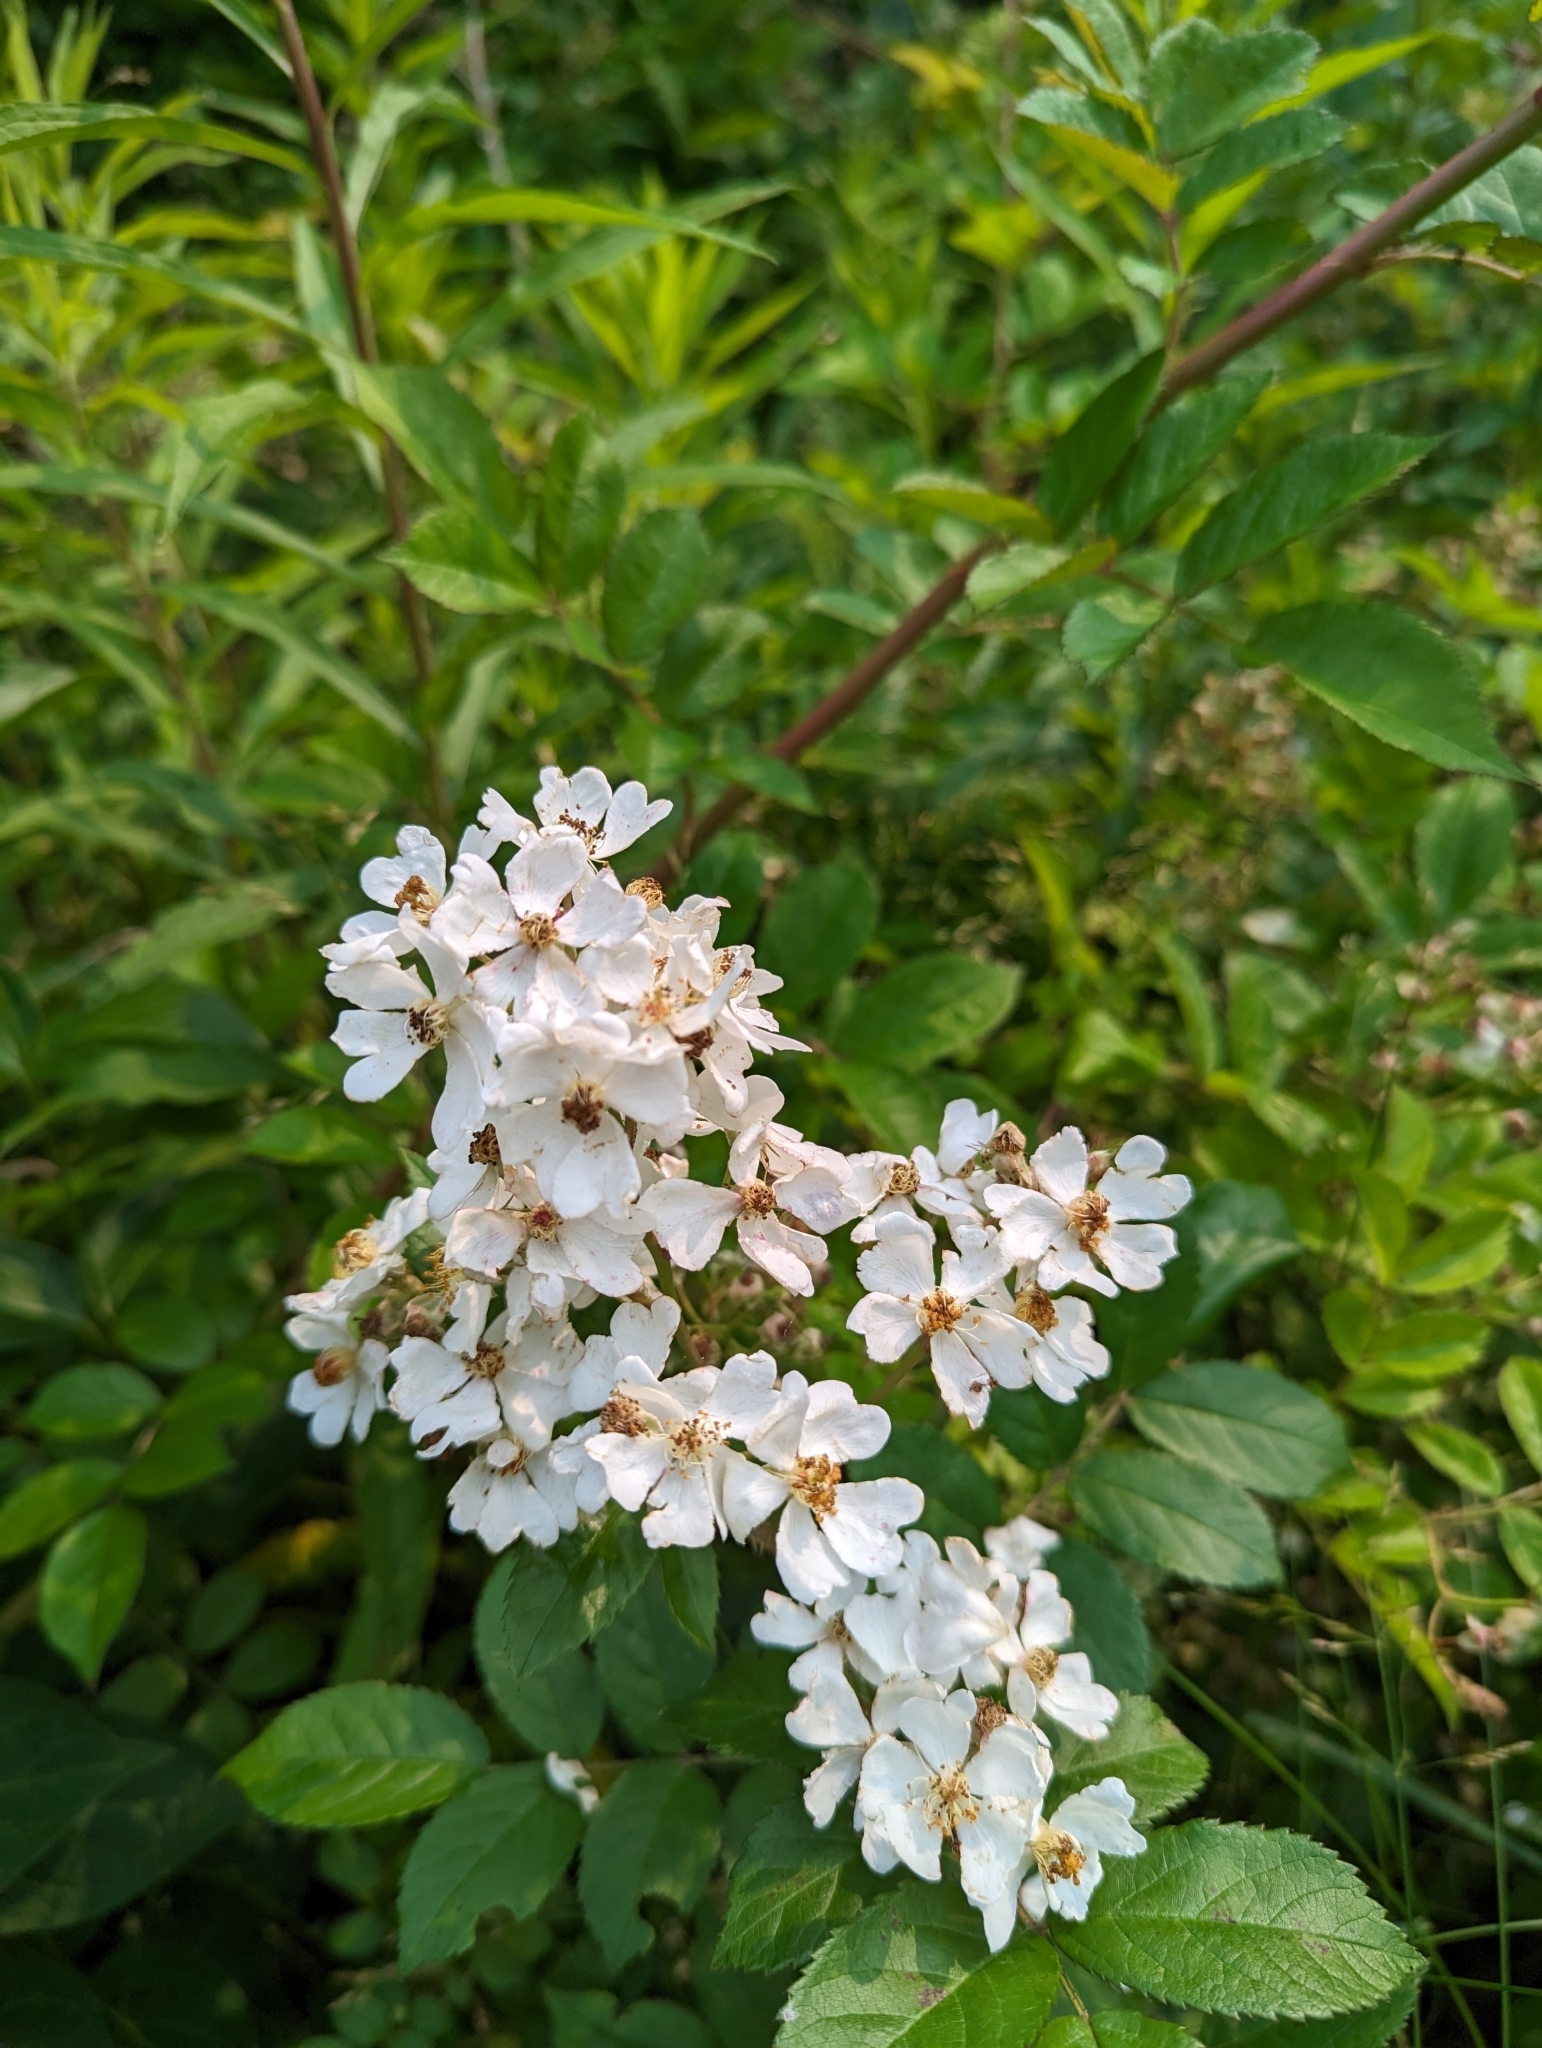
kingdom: Plantae
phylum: Tracheophyta
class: Magnoliopsida
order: Rosales
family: Rosaceae
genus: Rosa
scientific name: Rosa multiflora
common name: Multiflora rose
